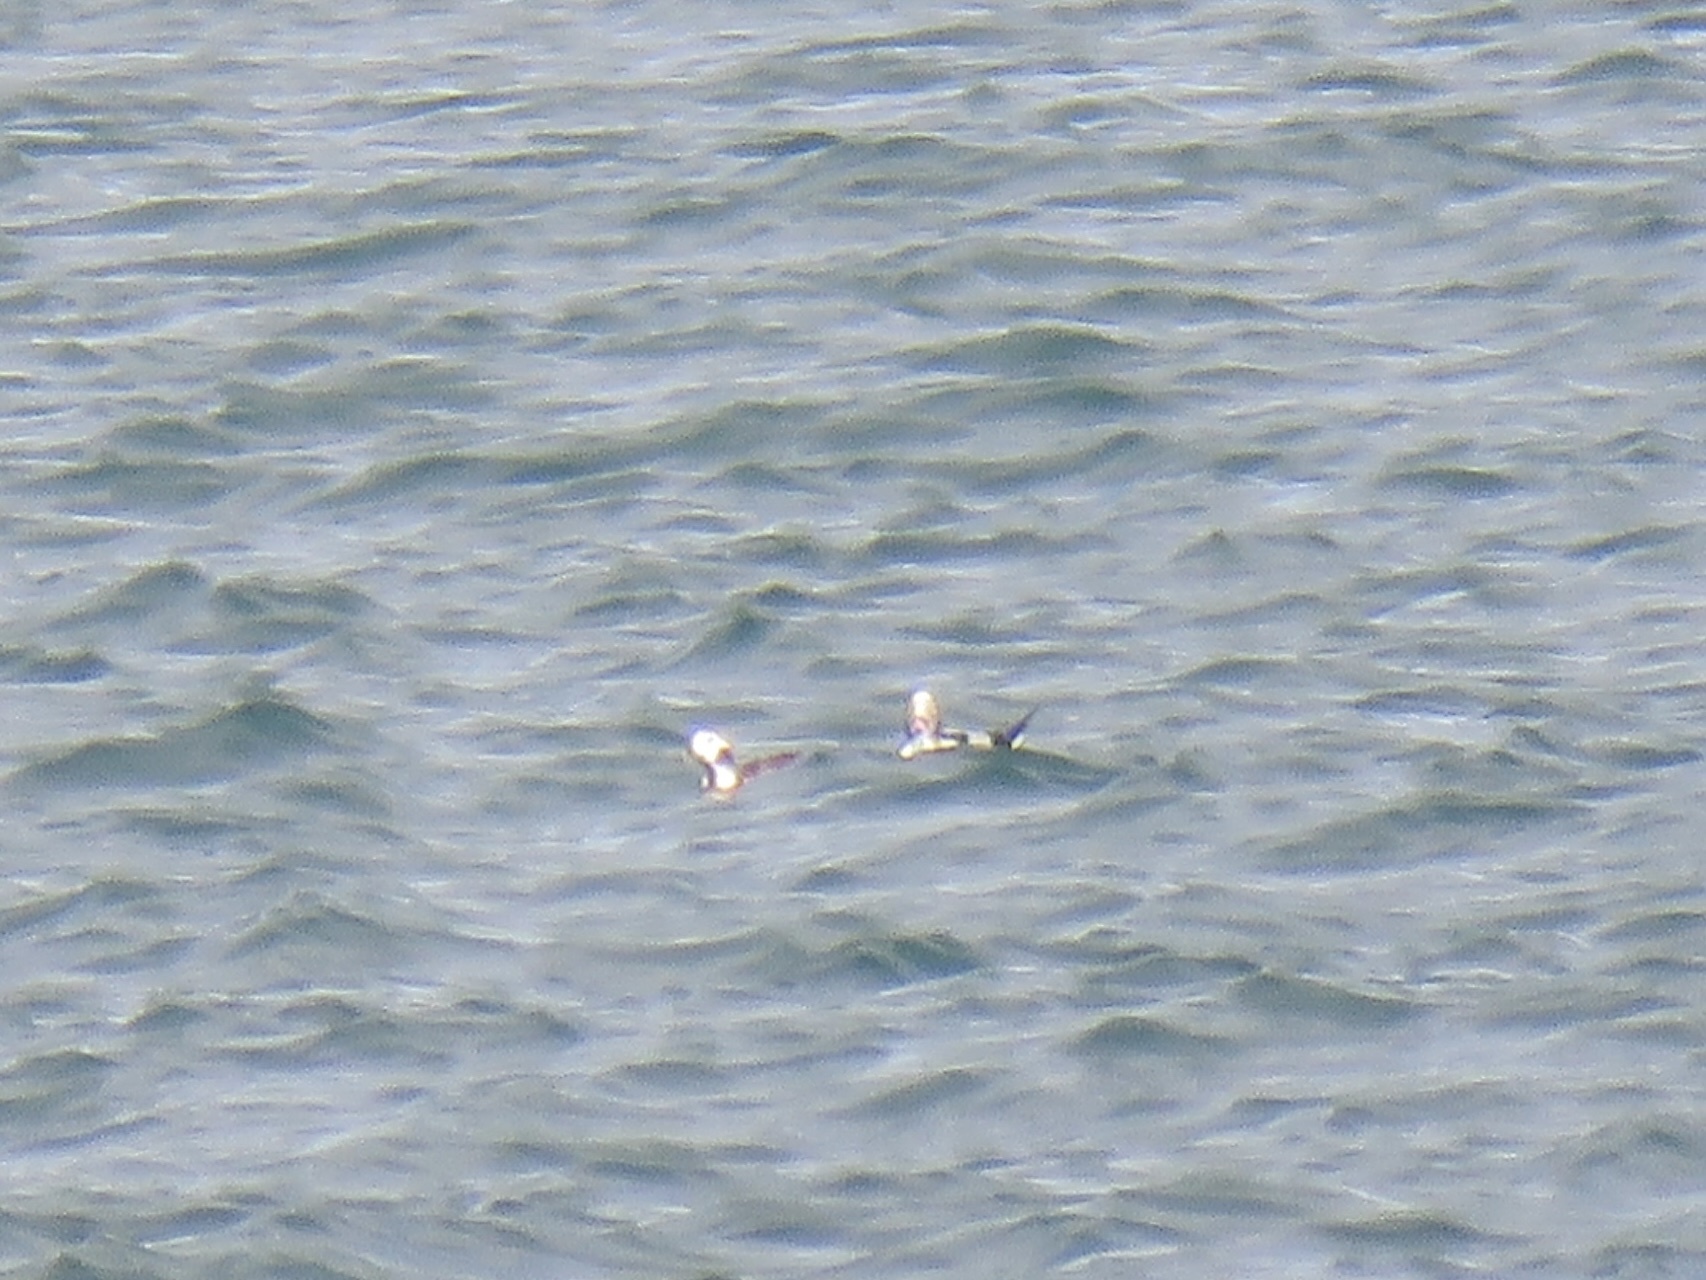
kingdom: Animalia
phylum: Chordata
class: Aves
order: Anseriformes
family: Anatidae
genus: Clangula
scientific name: Clangula hyemalis
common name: Long-tailed duck
